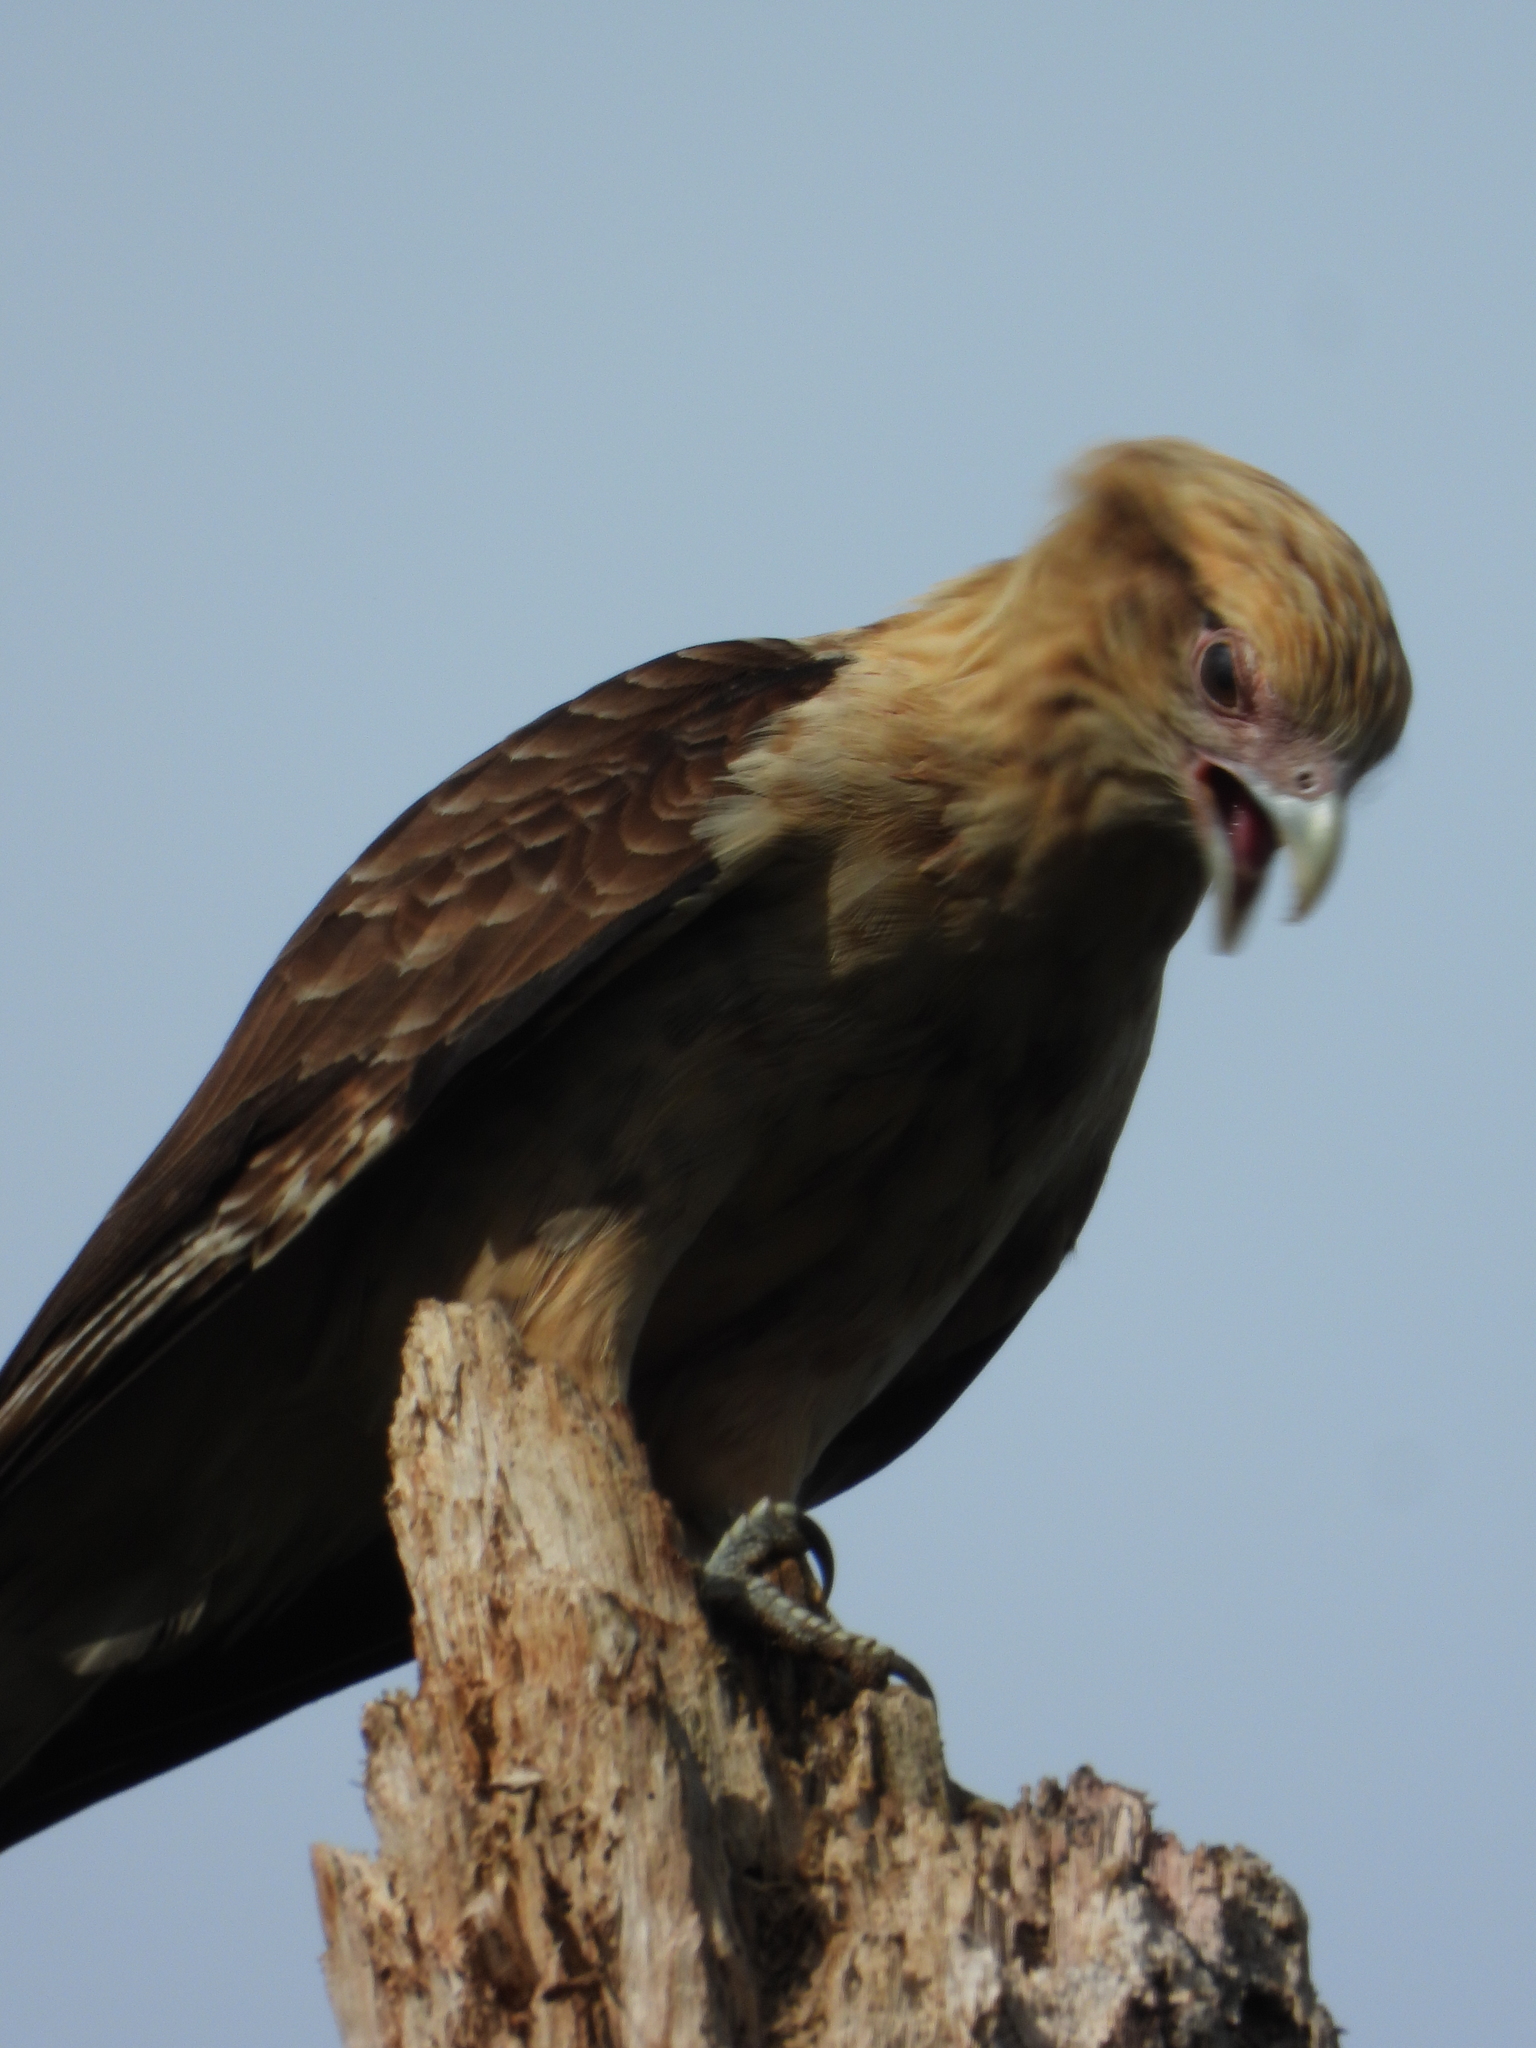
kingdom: Animalia
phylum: Chordata
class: Aves
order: Falconiformes
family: Falconidae
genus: Daptrius
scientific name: Daptrius
